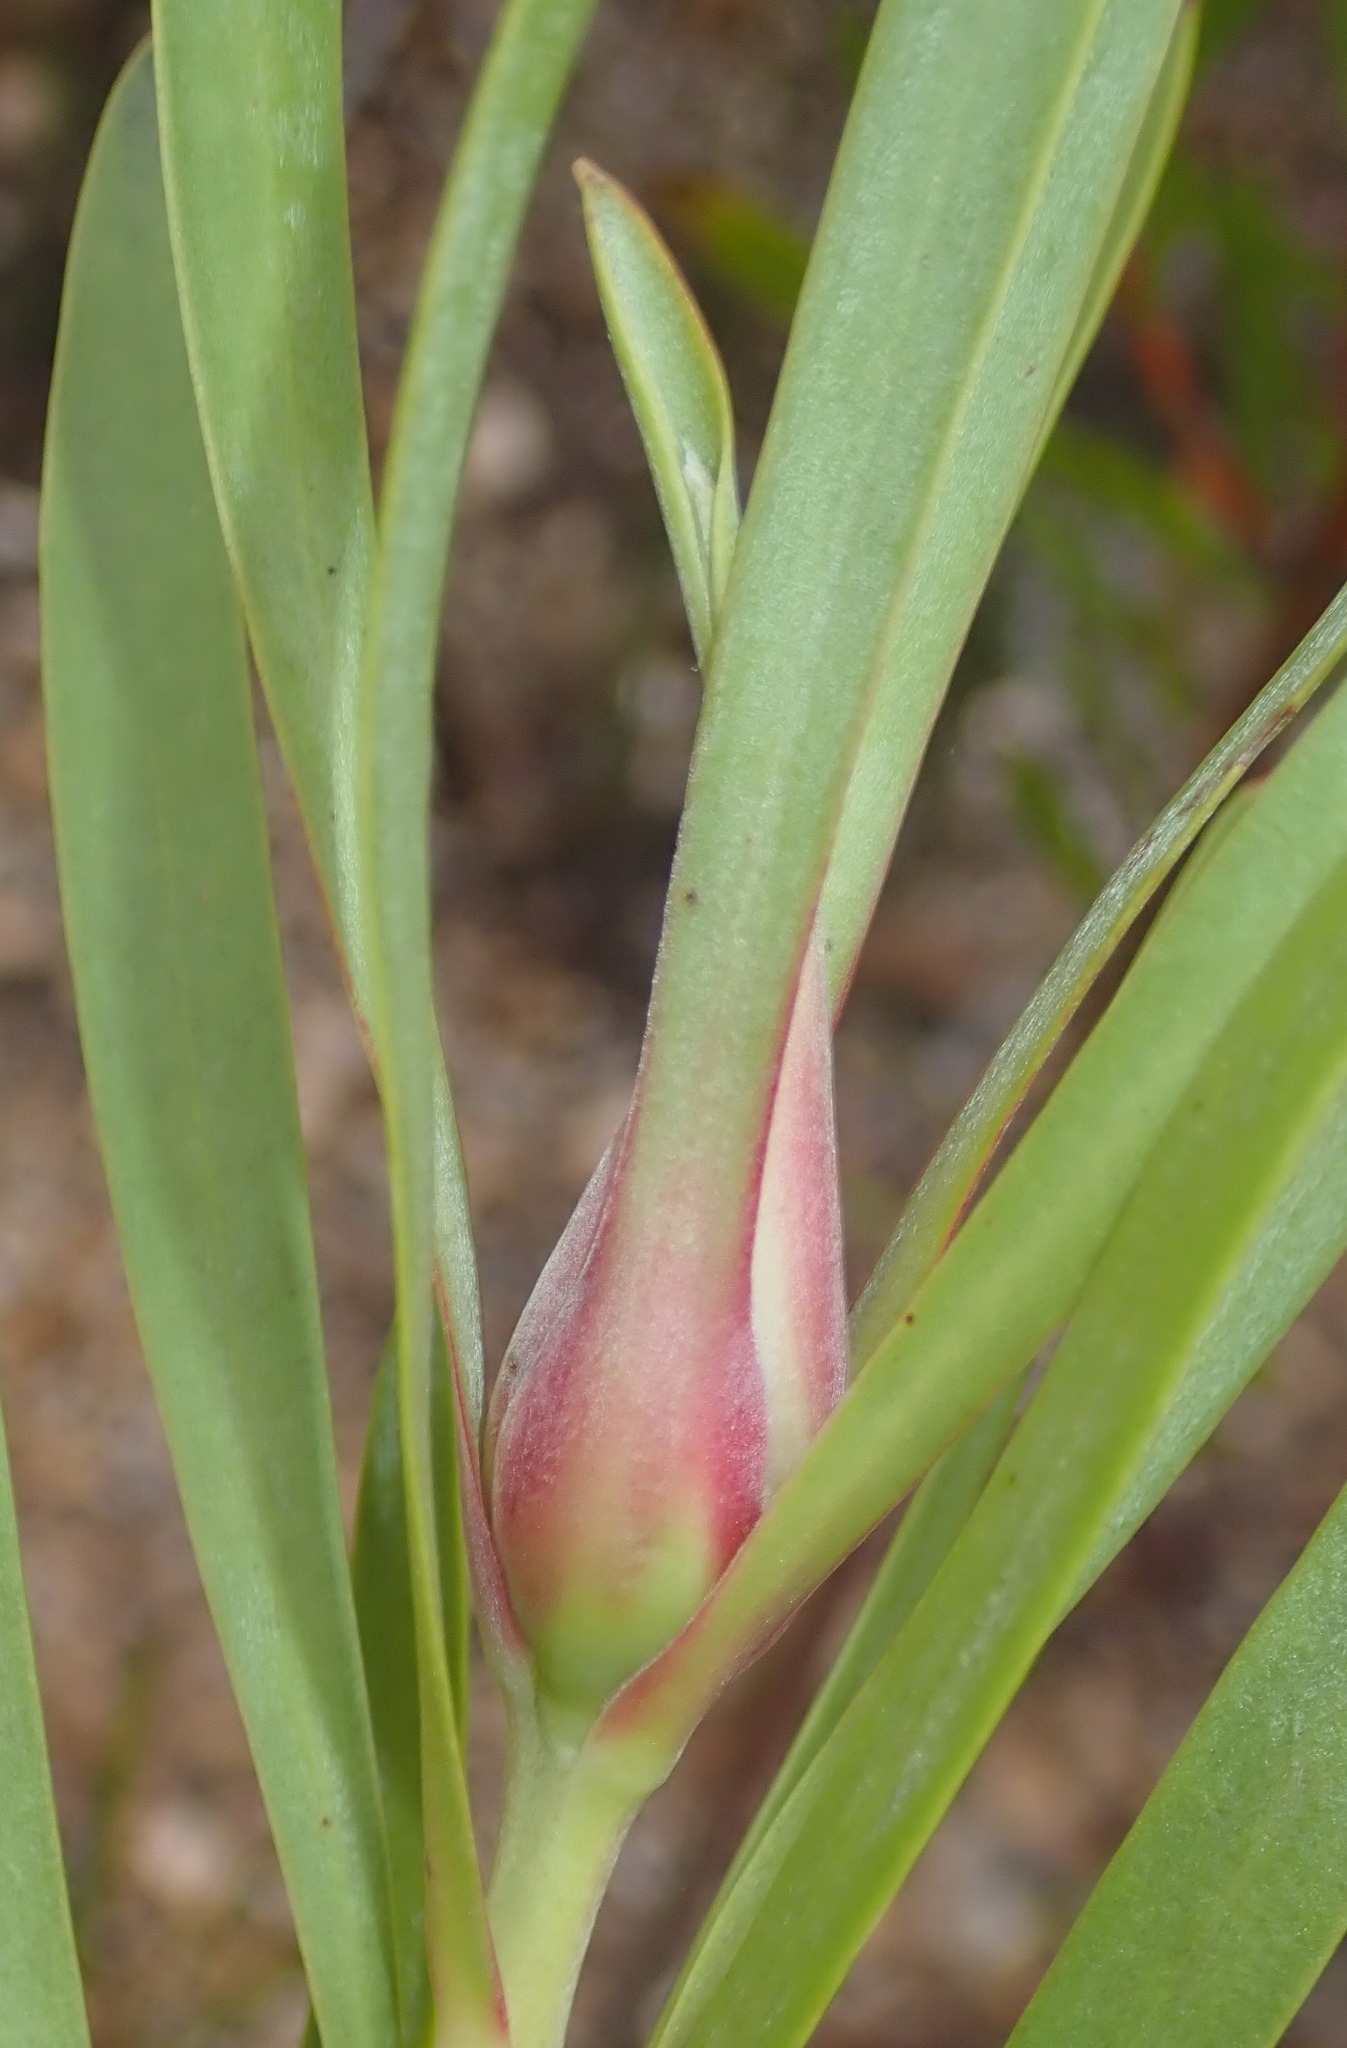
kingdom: Plantae
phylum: Tracheophyta
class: Magnoliopsida
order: Proteales
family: Proteaceae
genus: Leucadendron
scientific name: Leucadendron eucalyptifolium
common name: Gum-leaved conebush
